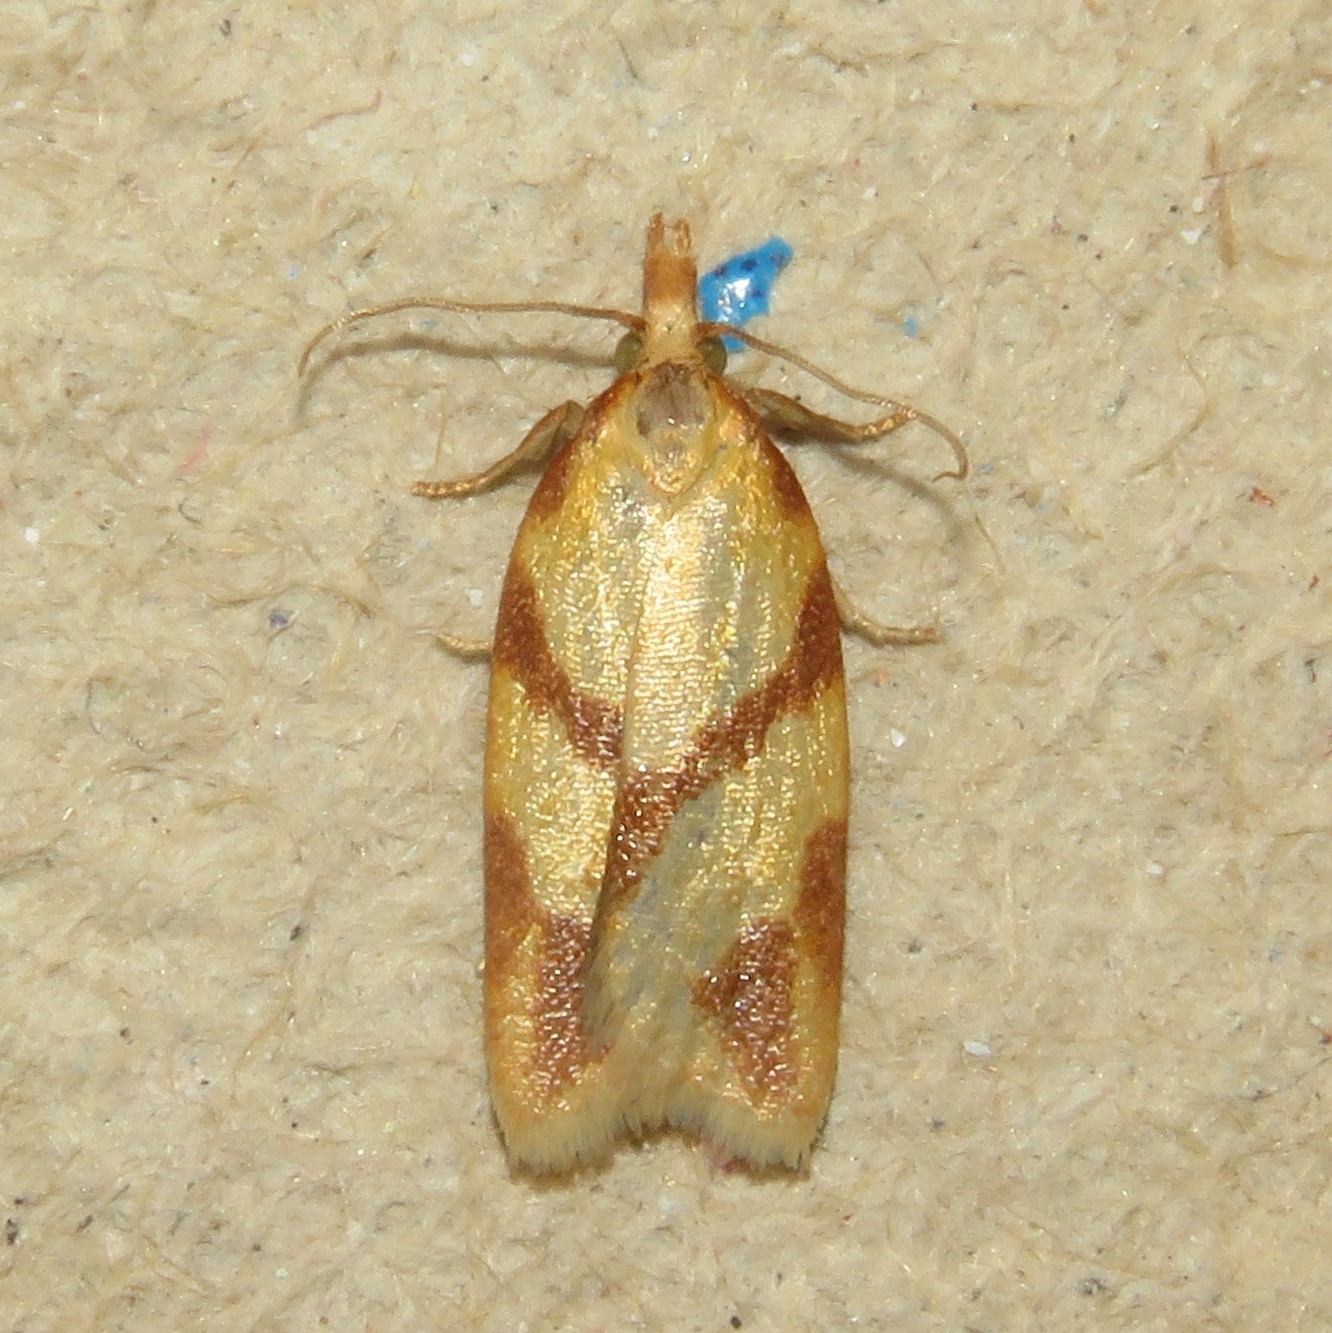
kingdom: Animalia
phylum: Arthropoda
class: Insecta
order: Lepidoptera
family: Tortricidae
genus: Sparganothis
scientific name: Sparganothis unifasciana
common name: One-lined sparganothis moth
